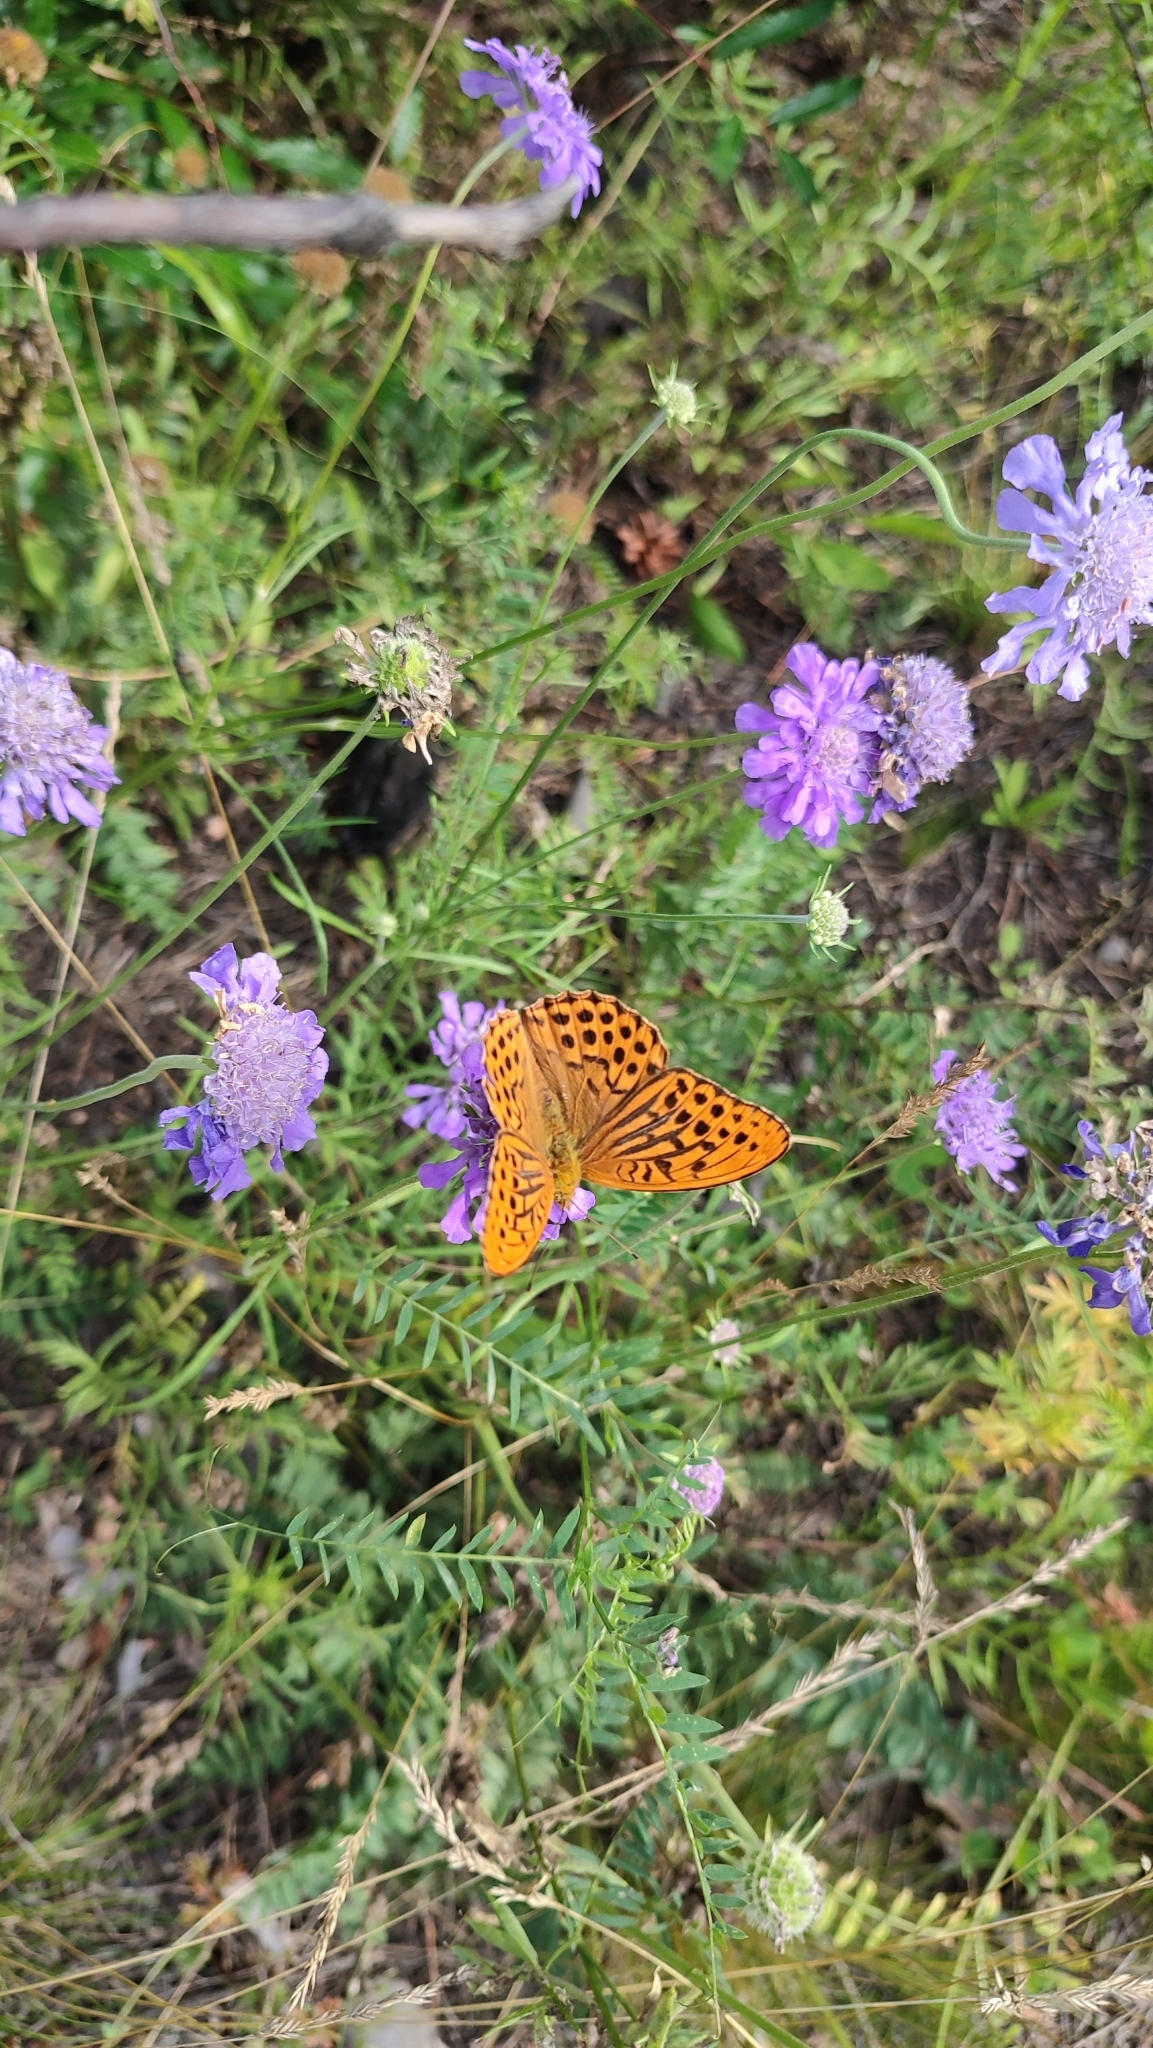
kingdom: Animalia
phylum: Arthropoda
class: Insecta
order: Lepidoptera
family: Nymphalidae
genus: Argynnis
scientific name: Argynnis paphia
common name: Silver-washed fritillary
